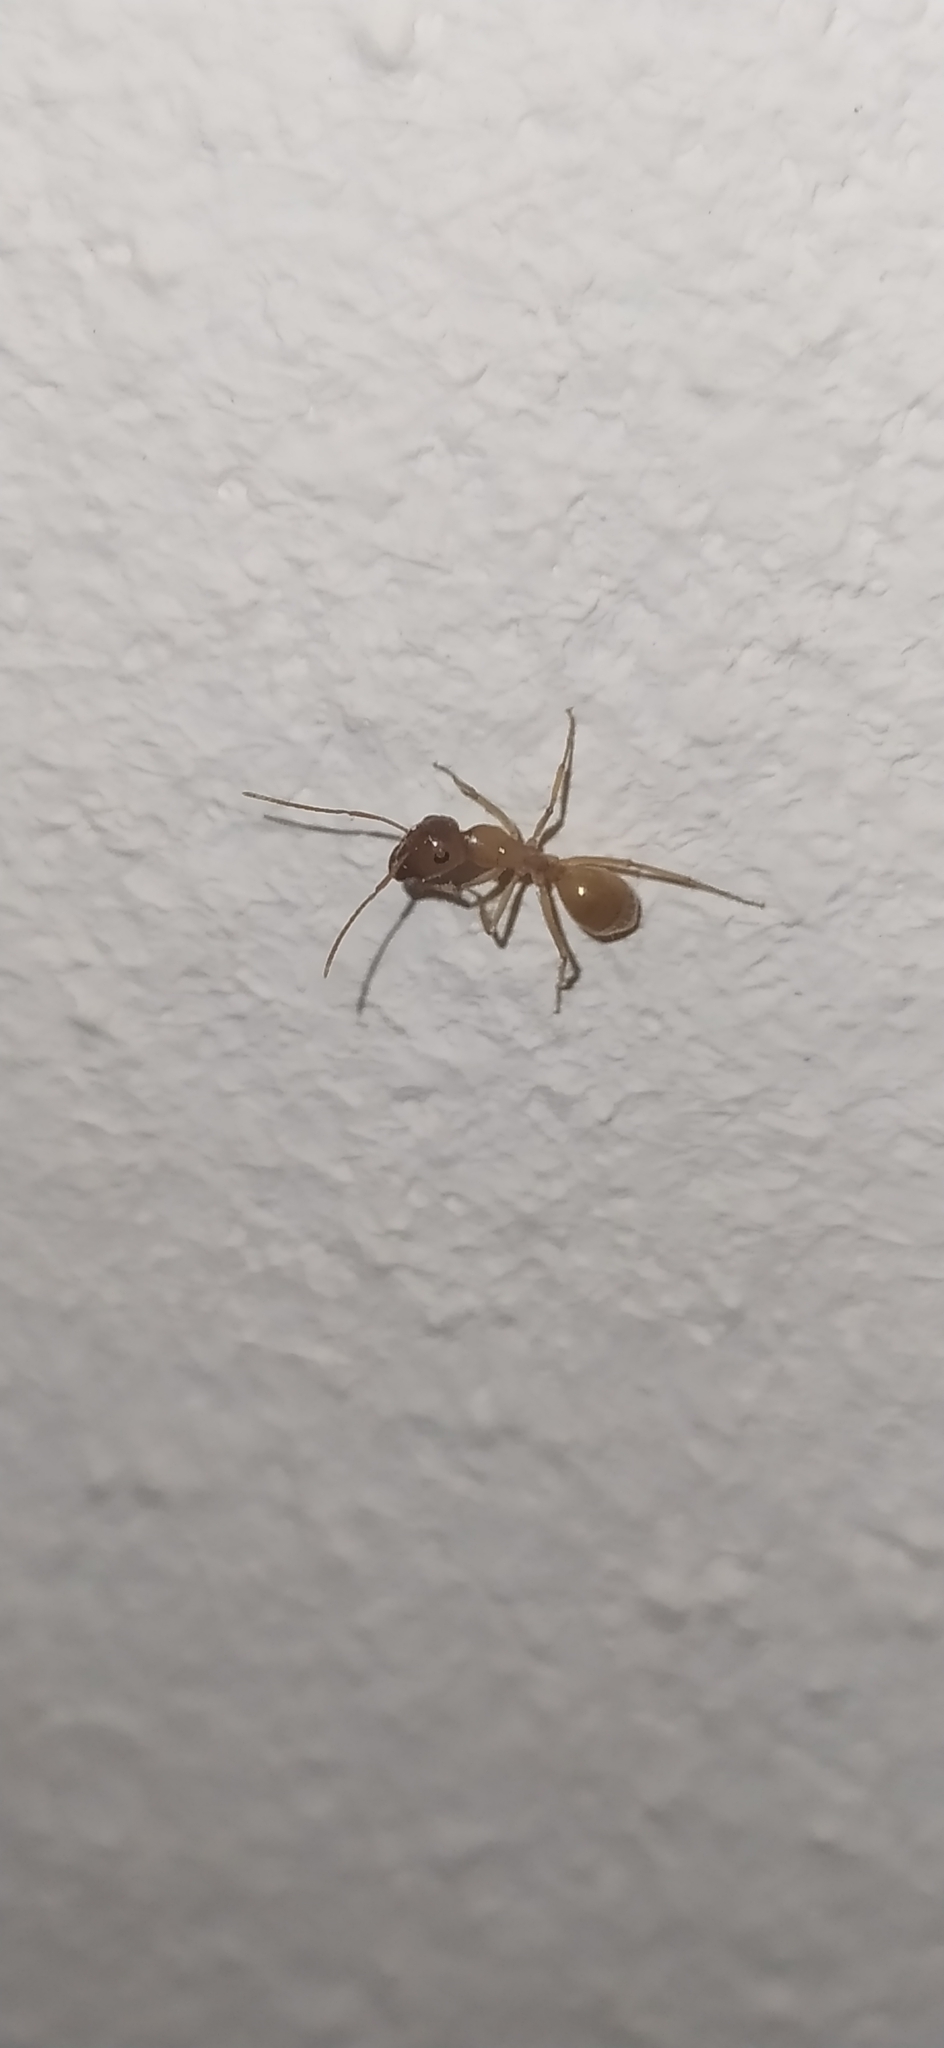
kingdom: Animalia
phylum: Arthropoda
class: Insecta
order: Hymenoptera
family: Formicidae
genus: Camponotus
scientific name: Camponotus fedtschenkoi
